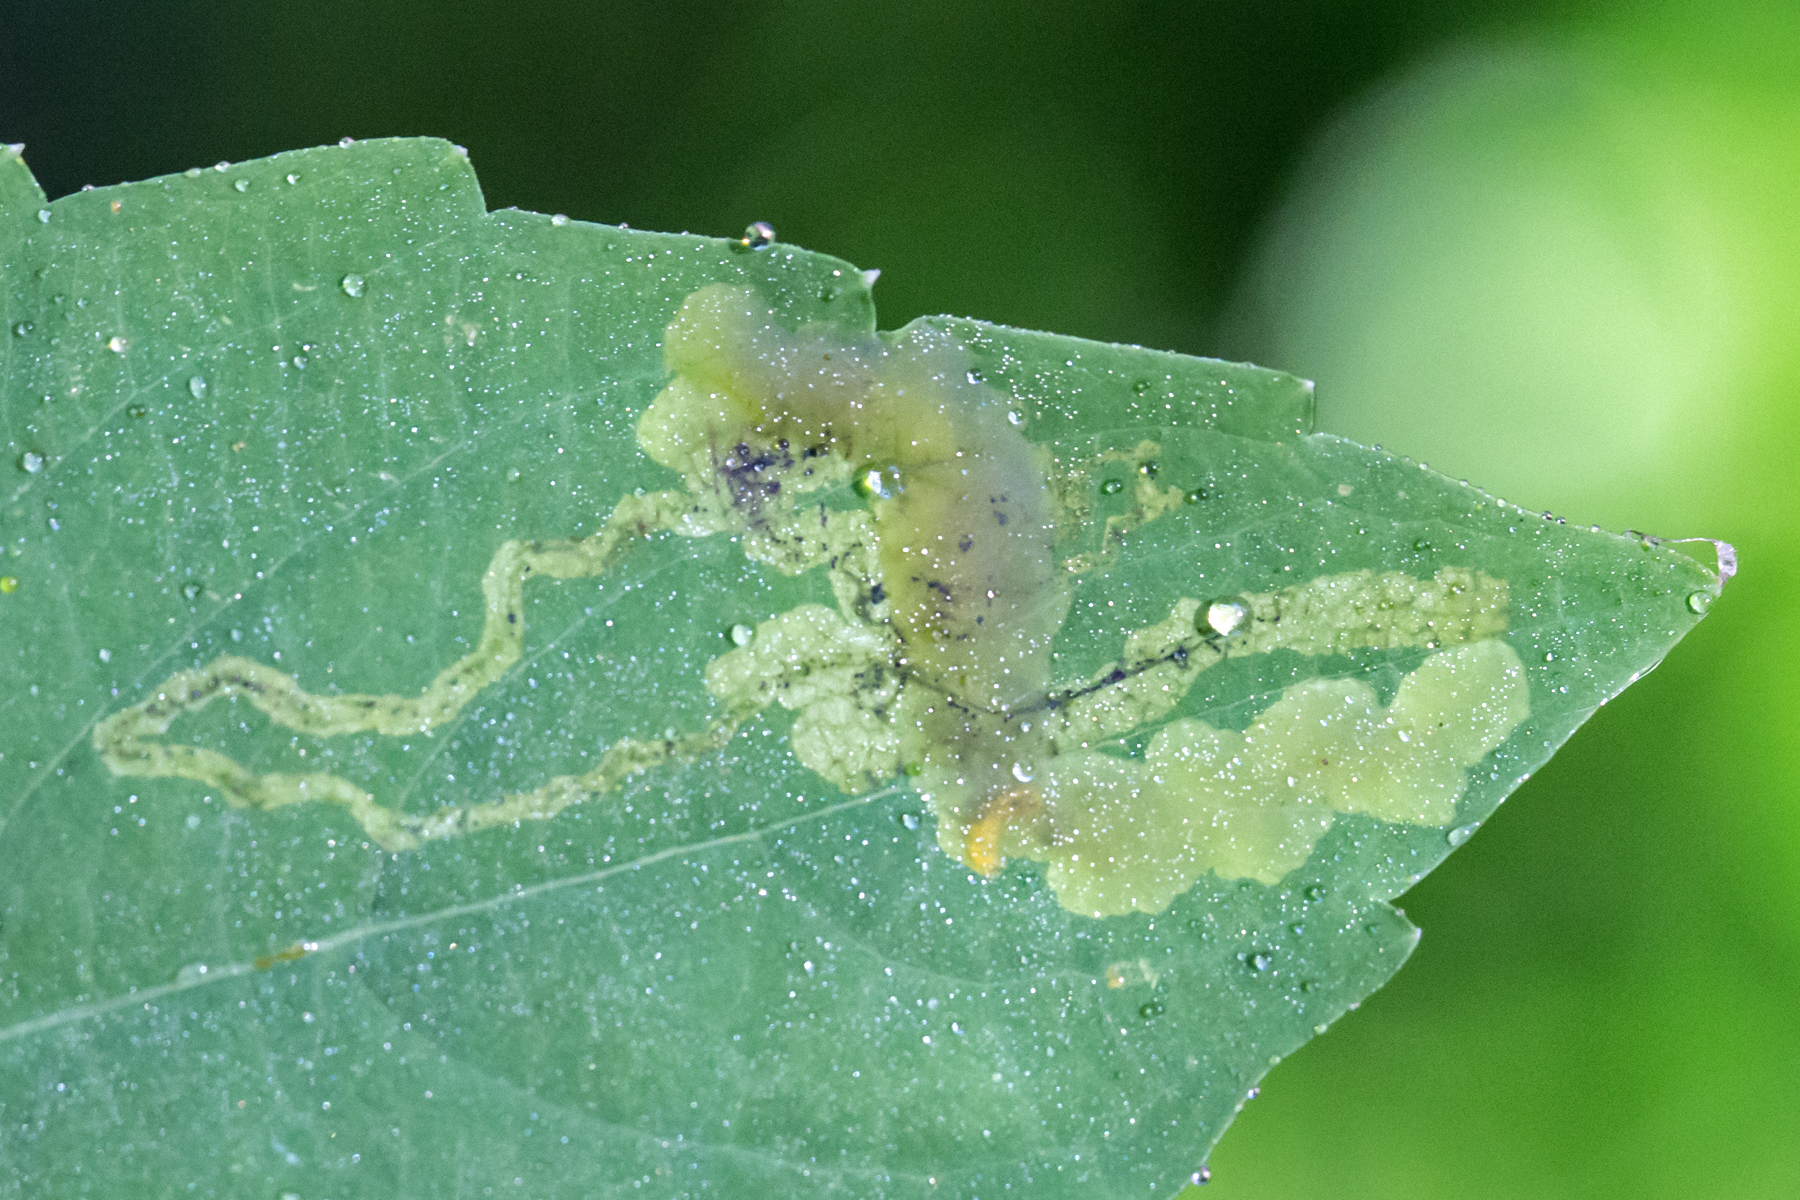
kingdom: Animalia
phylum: Arthropoda
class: Insecta
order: Diptera
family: Agromyzidae
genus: Phytoliriomyza
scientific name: Phytoliriomyza melampyga
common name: Jewelweed leaf-miner fly
